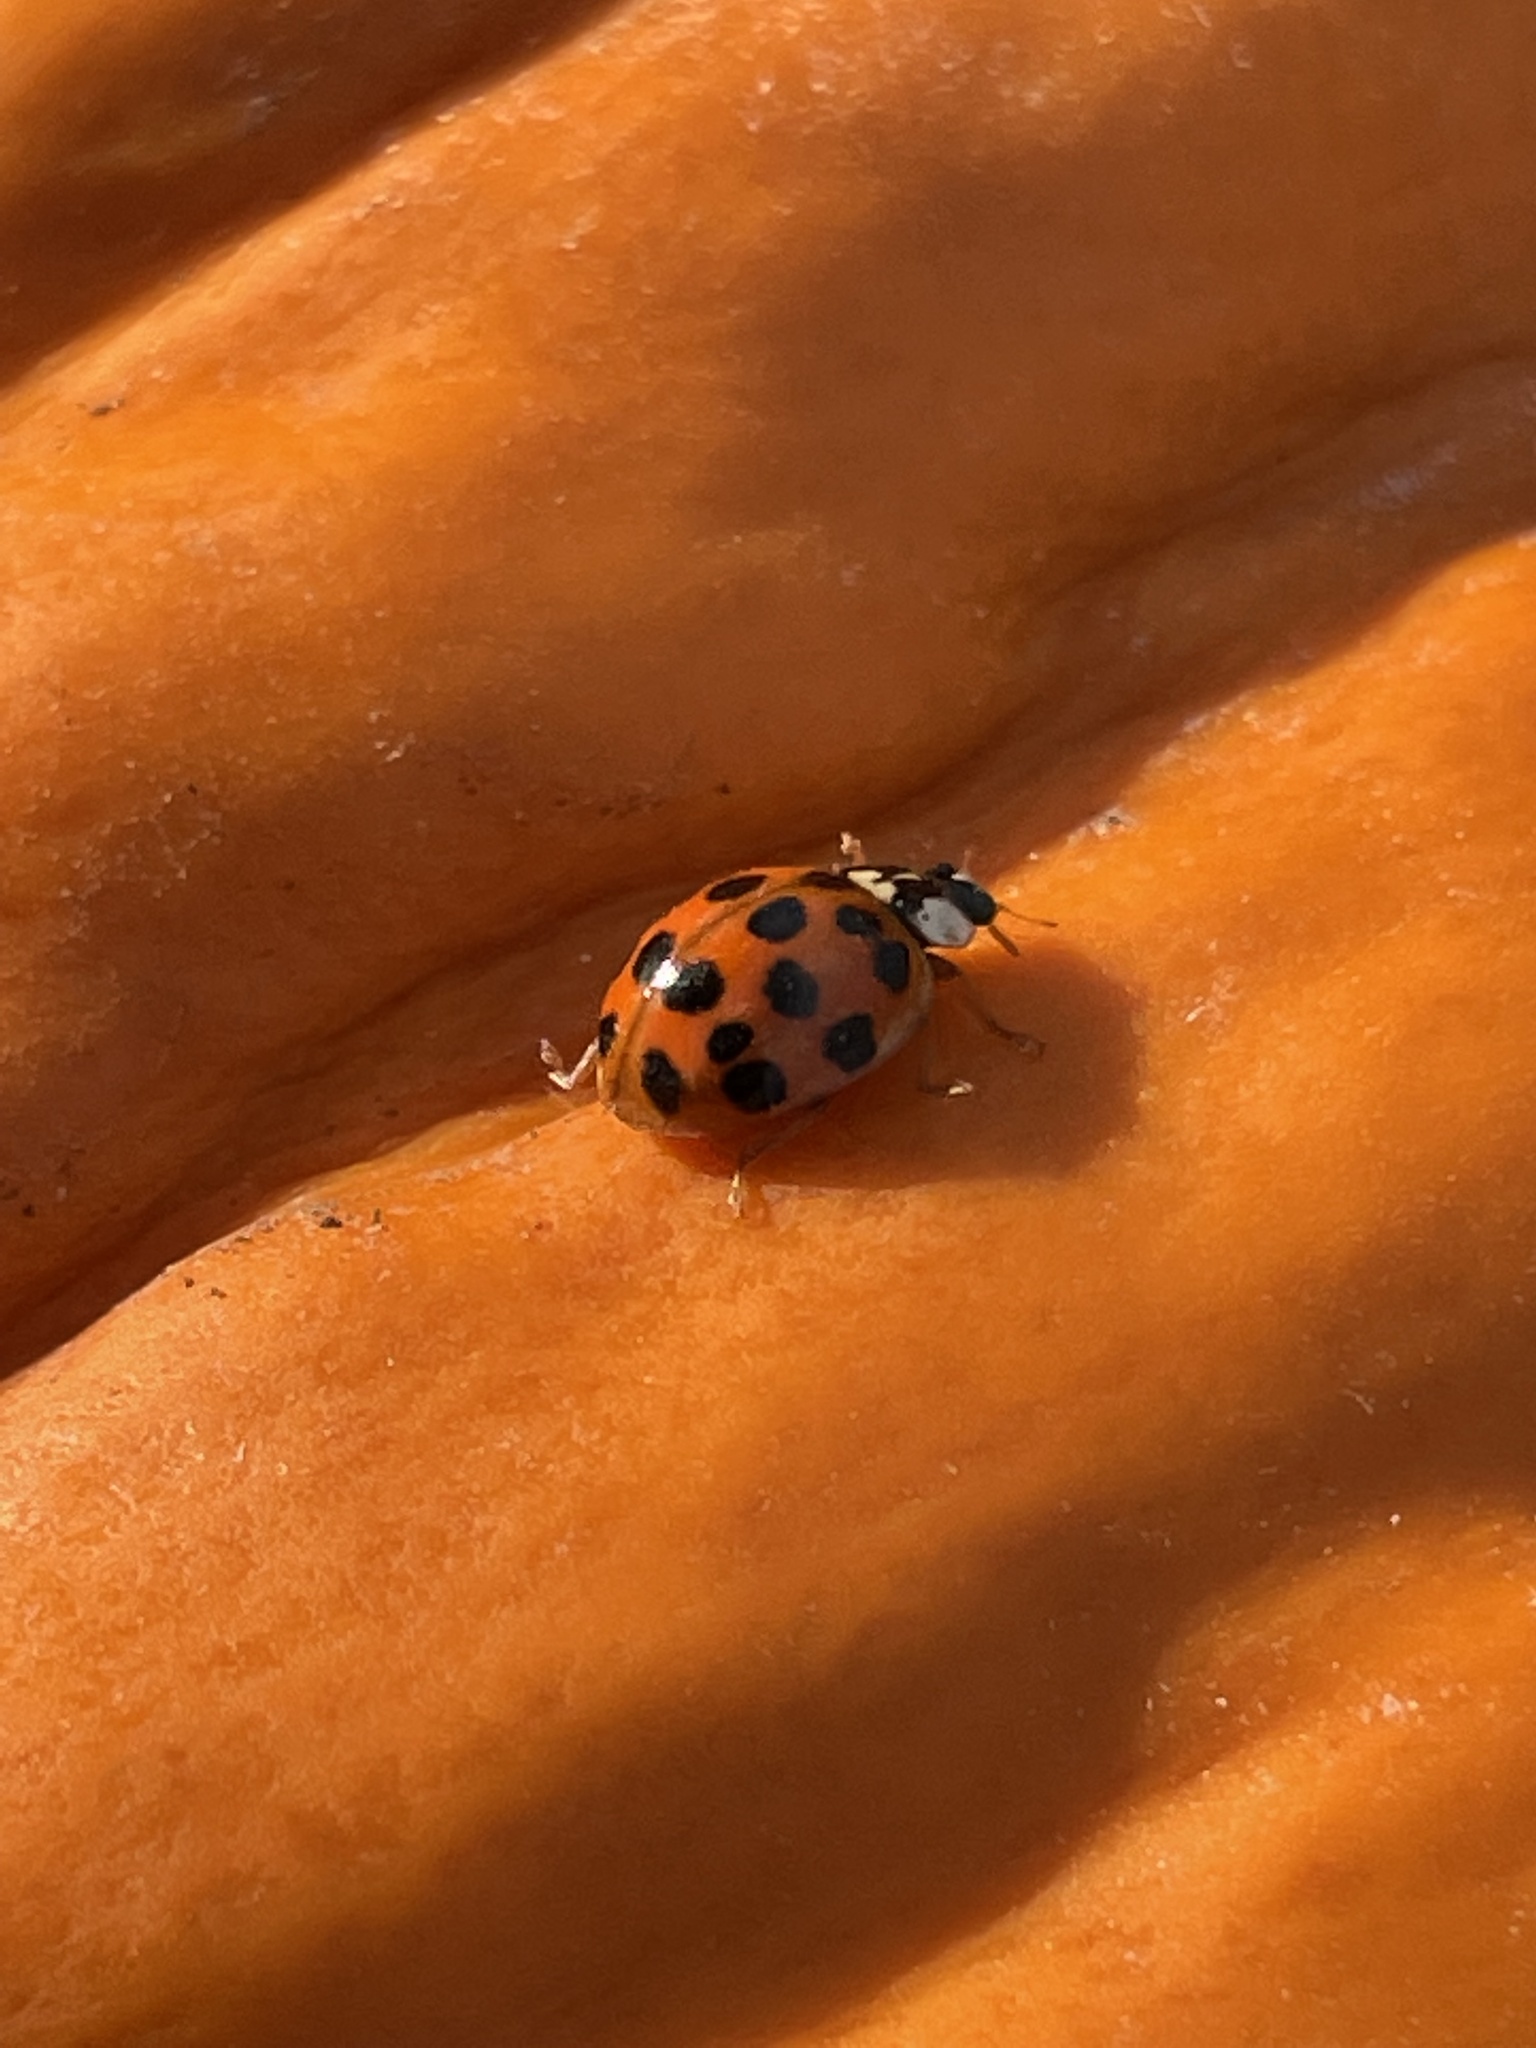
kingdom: Animalia
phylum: Arthropoda
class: Insecta
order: Coleoptera
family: Coccinellidae
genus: Harmonia
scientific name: Harmonia axyridis
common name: Harlequin ladybird
